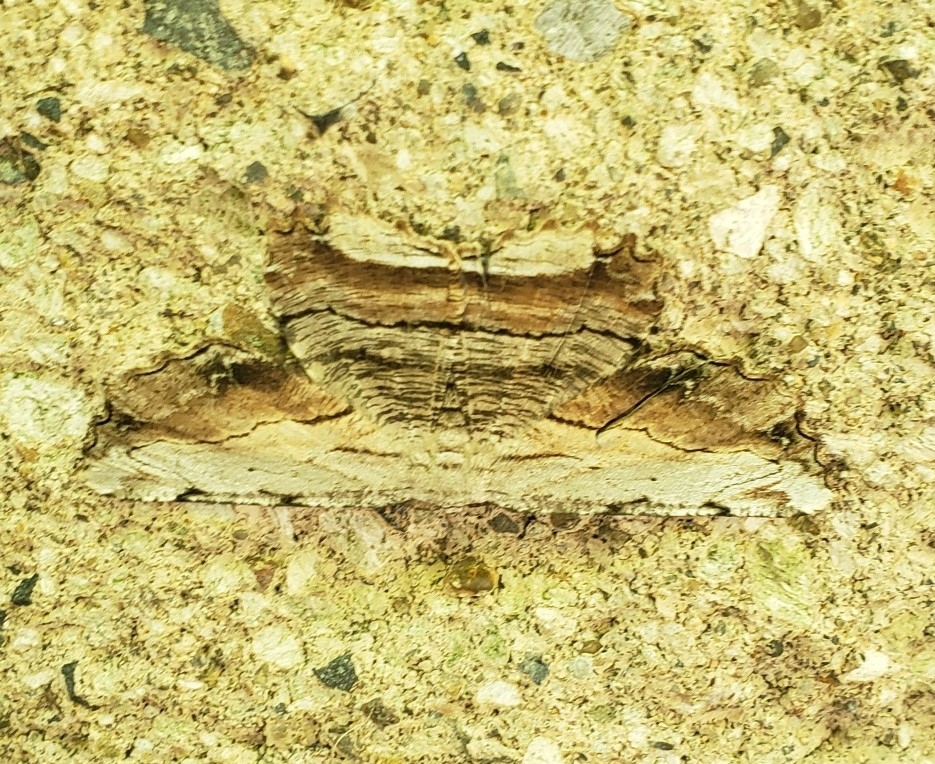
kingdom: Animalia
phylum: Arthropoda
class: Insecta
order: Lepidoptera
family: Geometridae
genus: Lytrosis
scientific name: Lytrosis unitaria
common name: Common lytrosis
